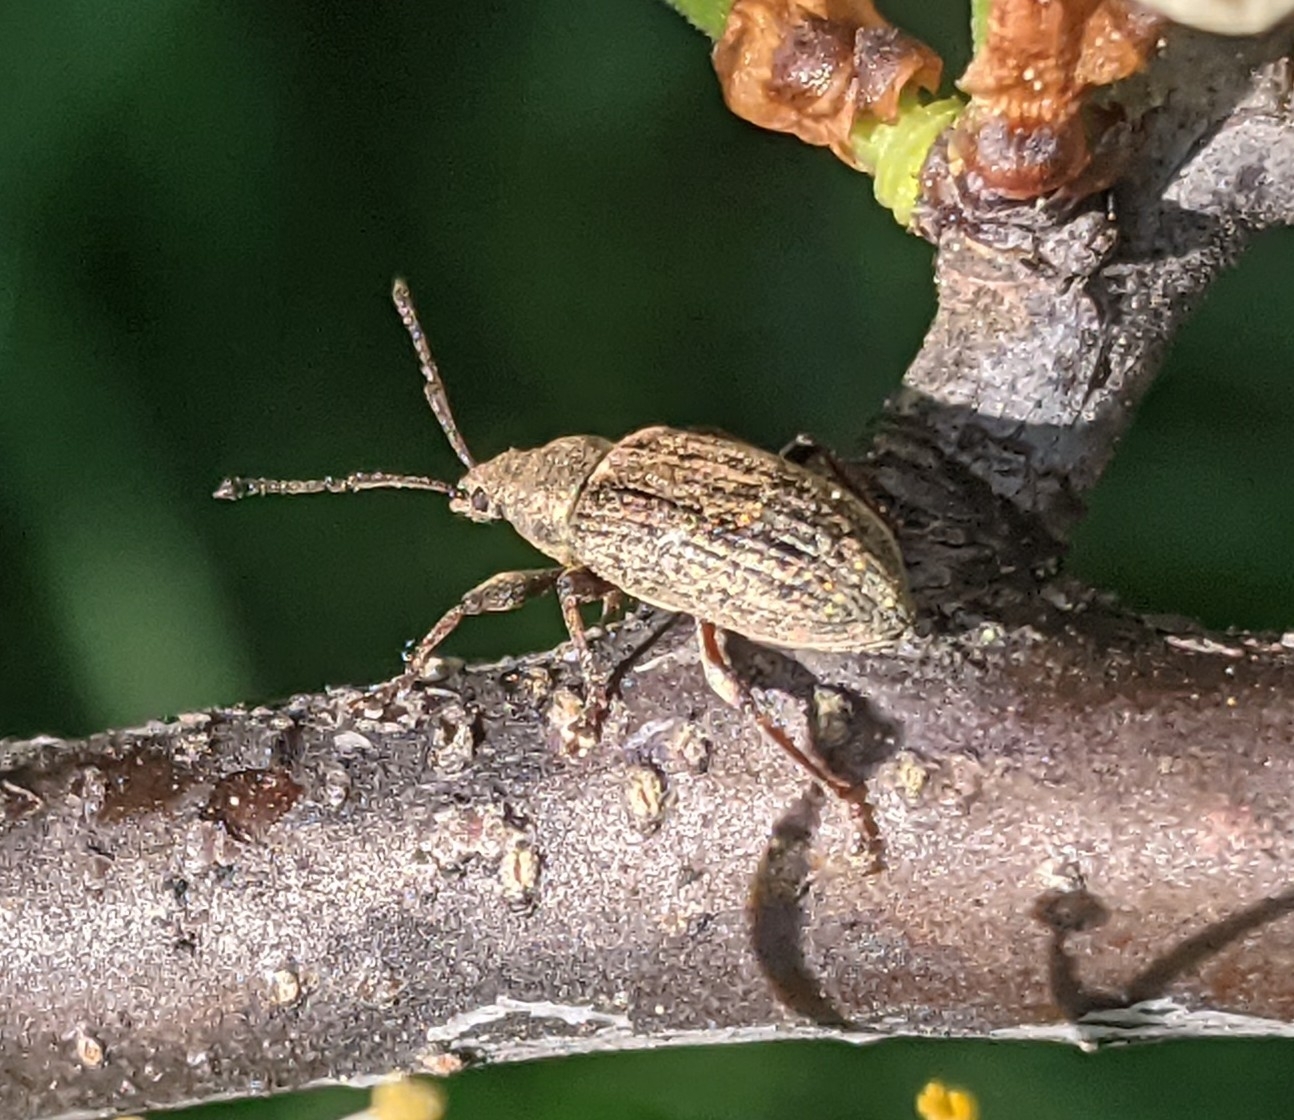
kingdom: Animalia
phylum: Arthropoda
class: Insecta
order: Coleoptera
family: Curculionidae
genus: Phyllobius
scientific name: Phyllobius pyri
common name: Common leaf weevil
